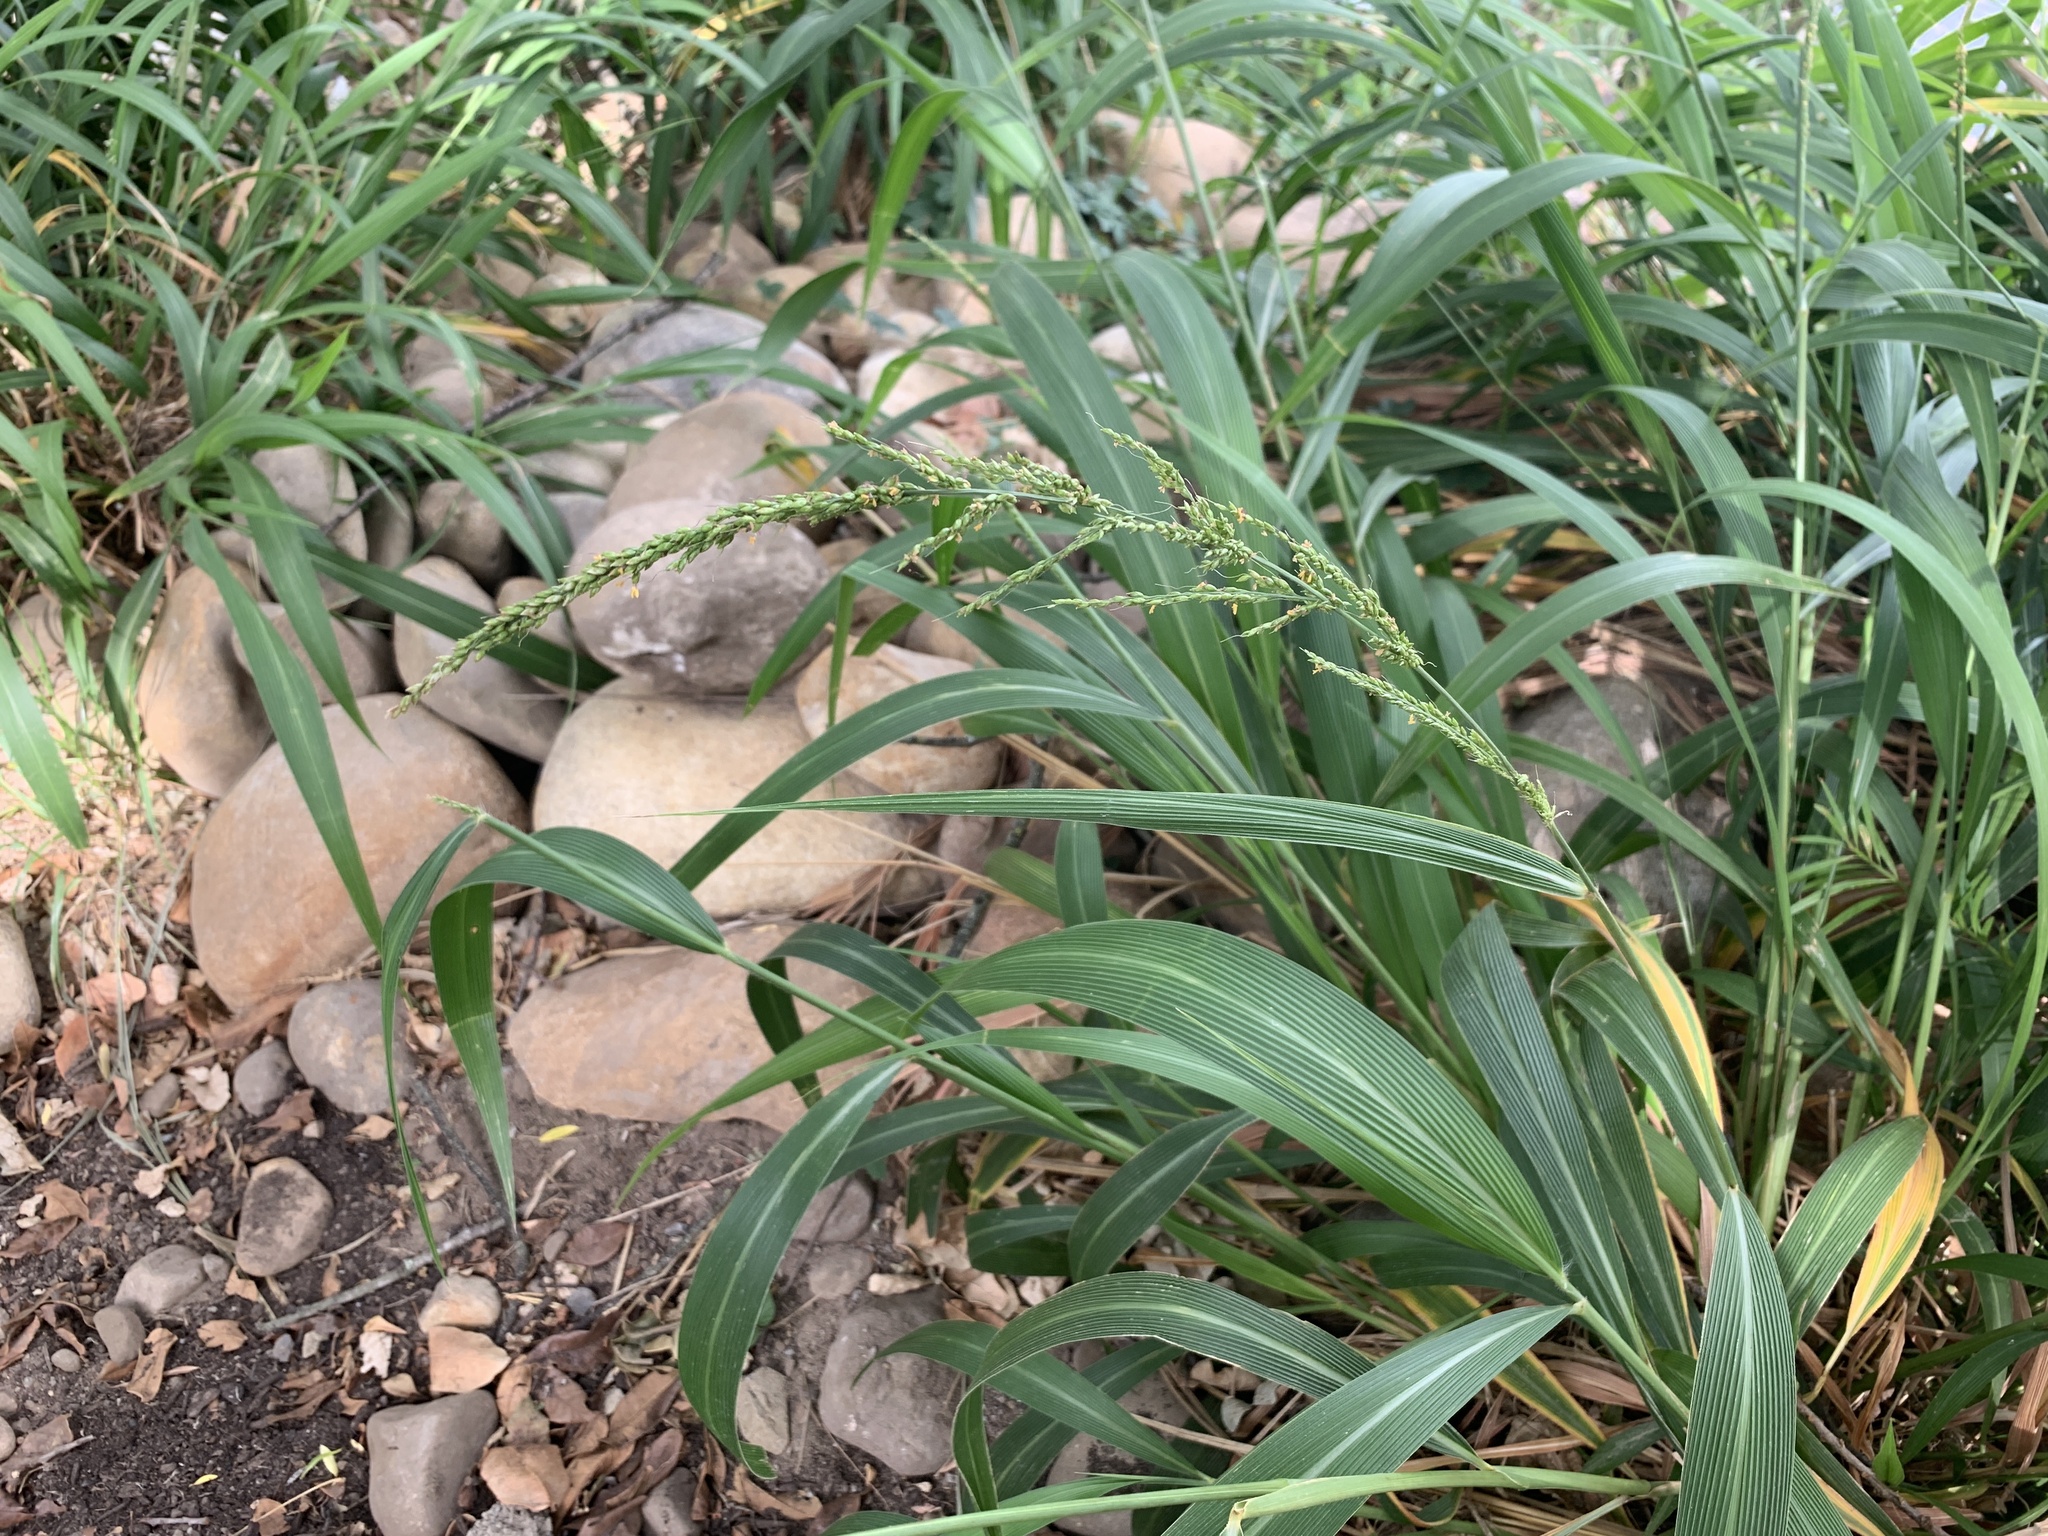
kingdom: Plantae
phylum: Tracheophyta
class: Liliopsida
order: Poales
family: Poaceae
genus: Setaria
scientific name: Setaria megaphylla
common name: Bigleaf bristlegrass
